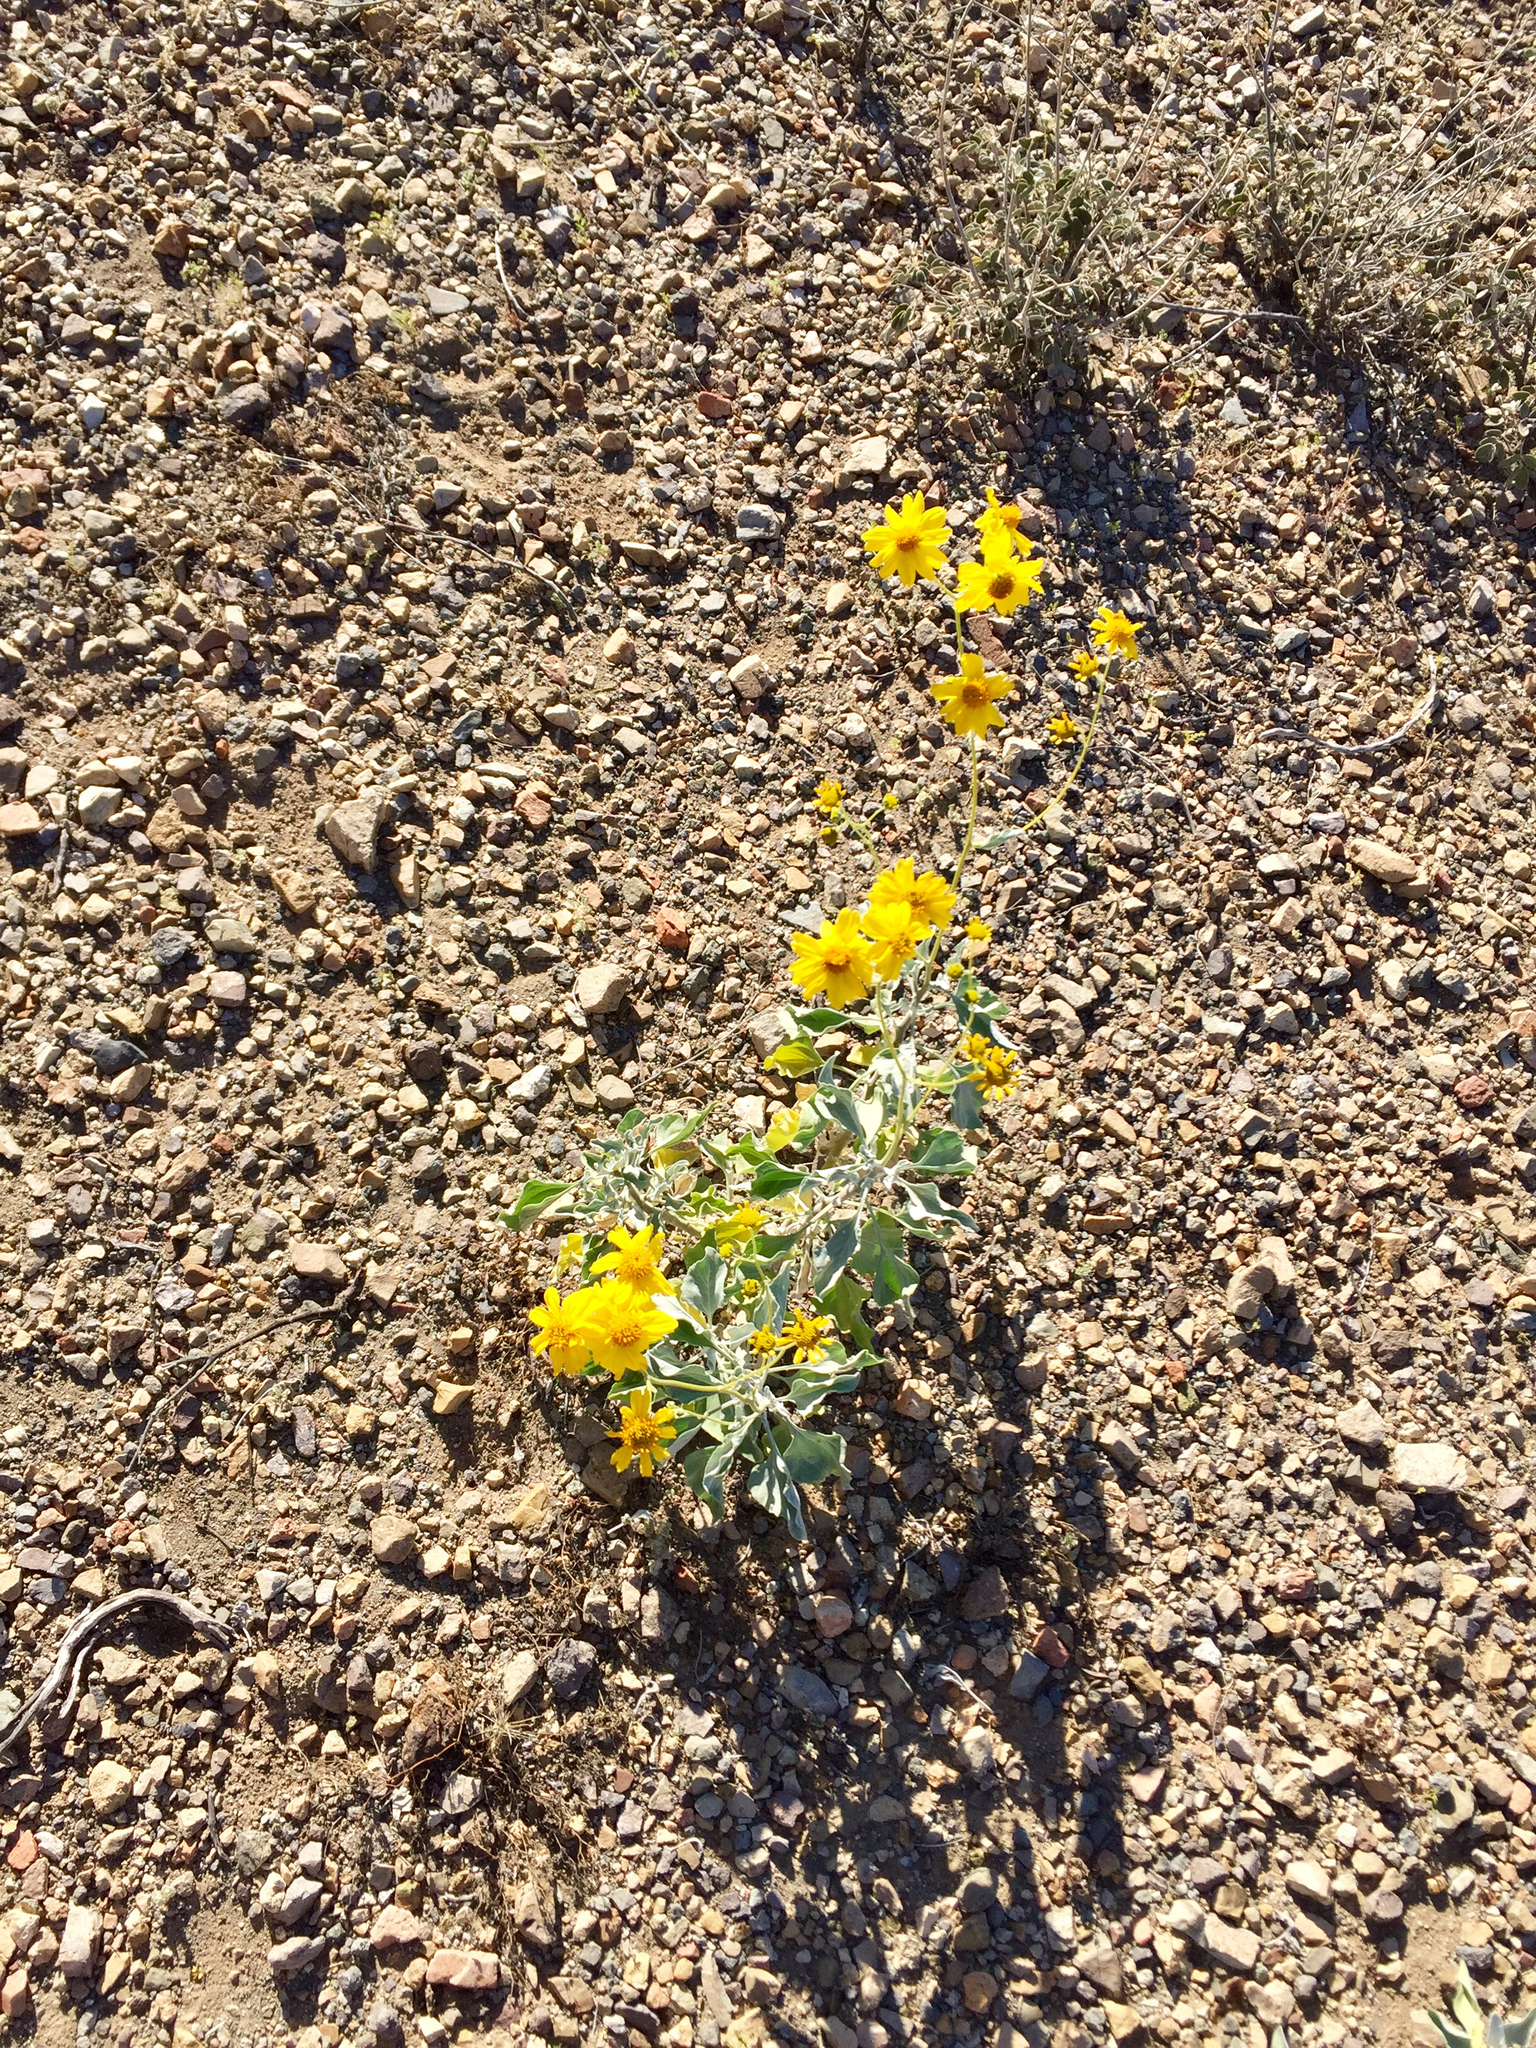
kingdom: Plantae
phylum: Tracheophyta
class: Magnoliopsida
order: Asterales
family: Asteraceae
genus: Encelia
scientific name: Encelia farinosa
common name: Brittlebush
